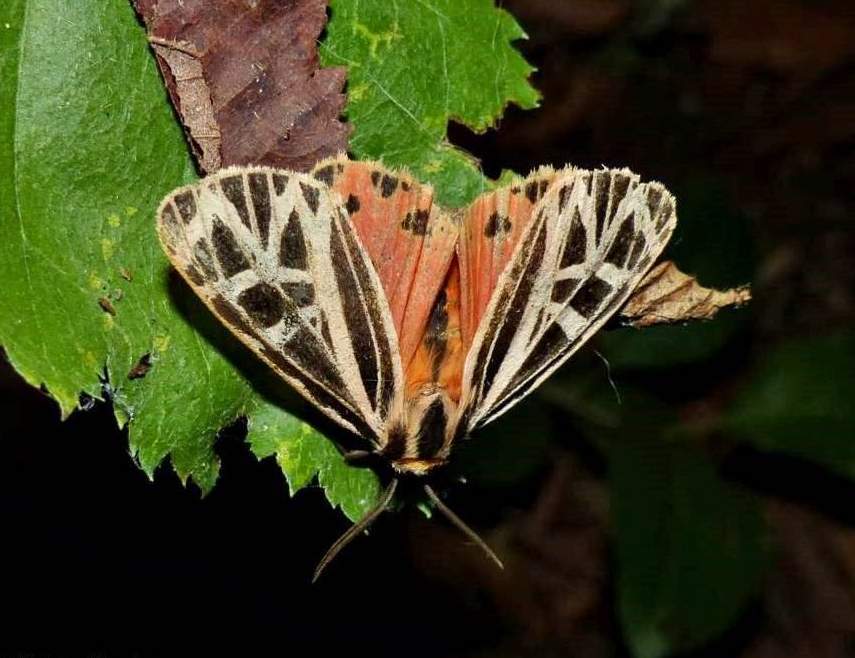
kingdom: Animalia
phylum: Arthropoda
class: Insecta
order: Lepidoptera
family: Erebidae
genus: Grammia
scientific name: Grammia parthenice
